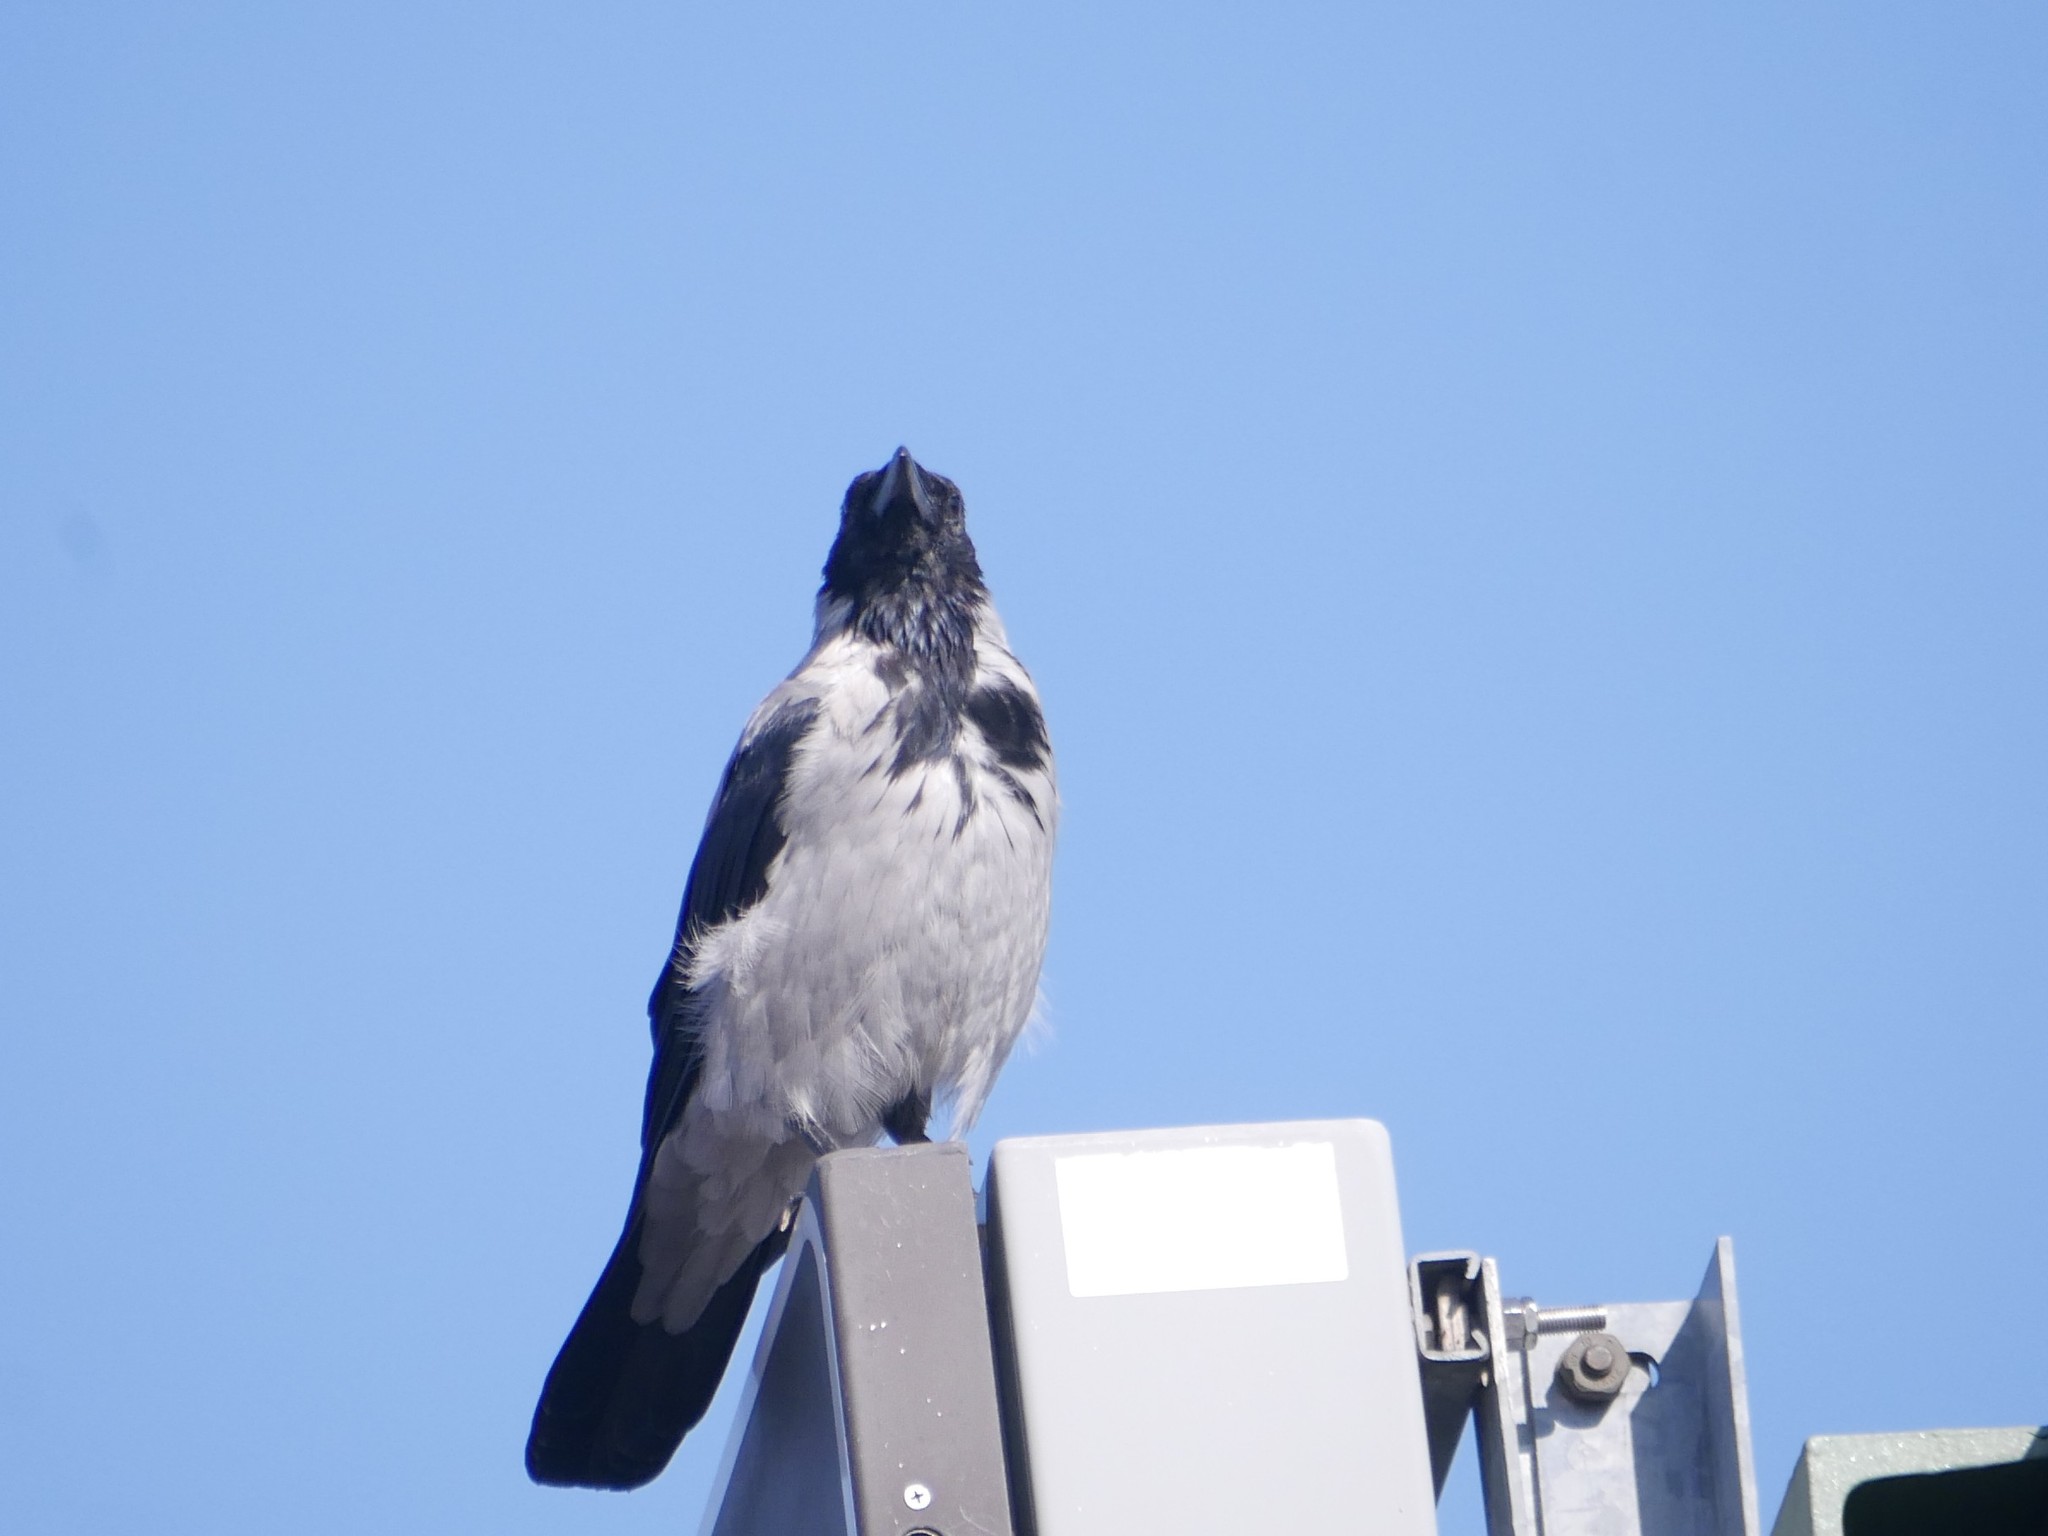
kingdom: Animalia
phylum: Chordata
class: Aves
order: Passeriformes
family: Corvidae
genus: Corvus
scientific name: Corvus cornix
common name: Hooded crow
